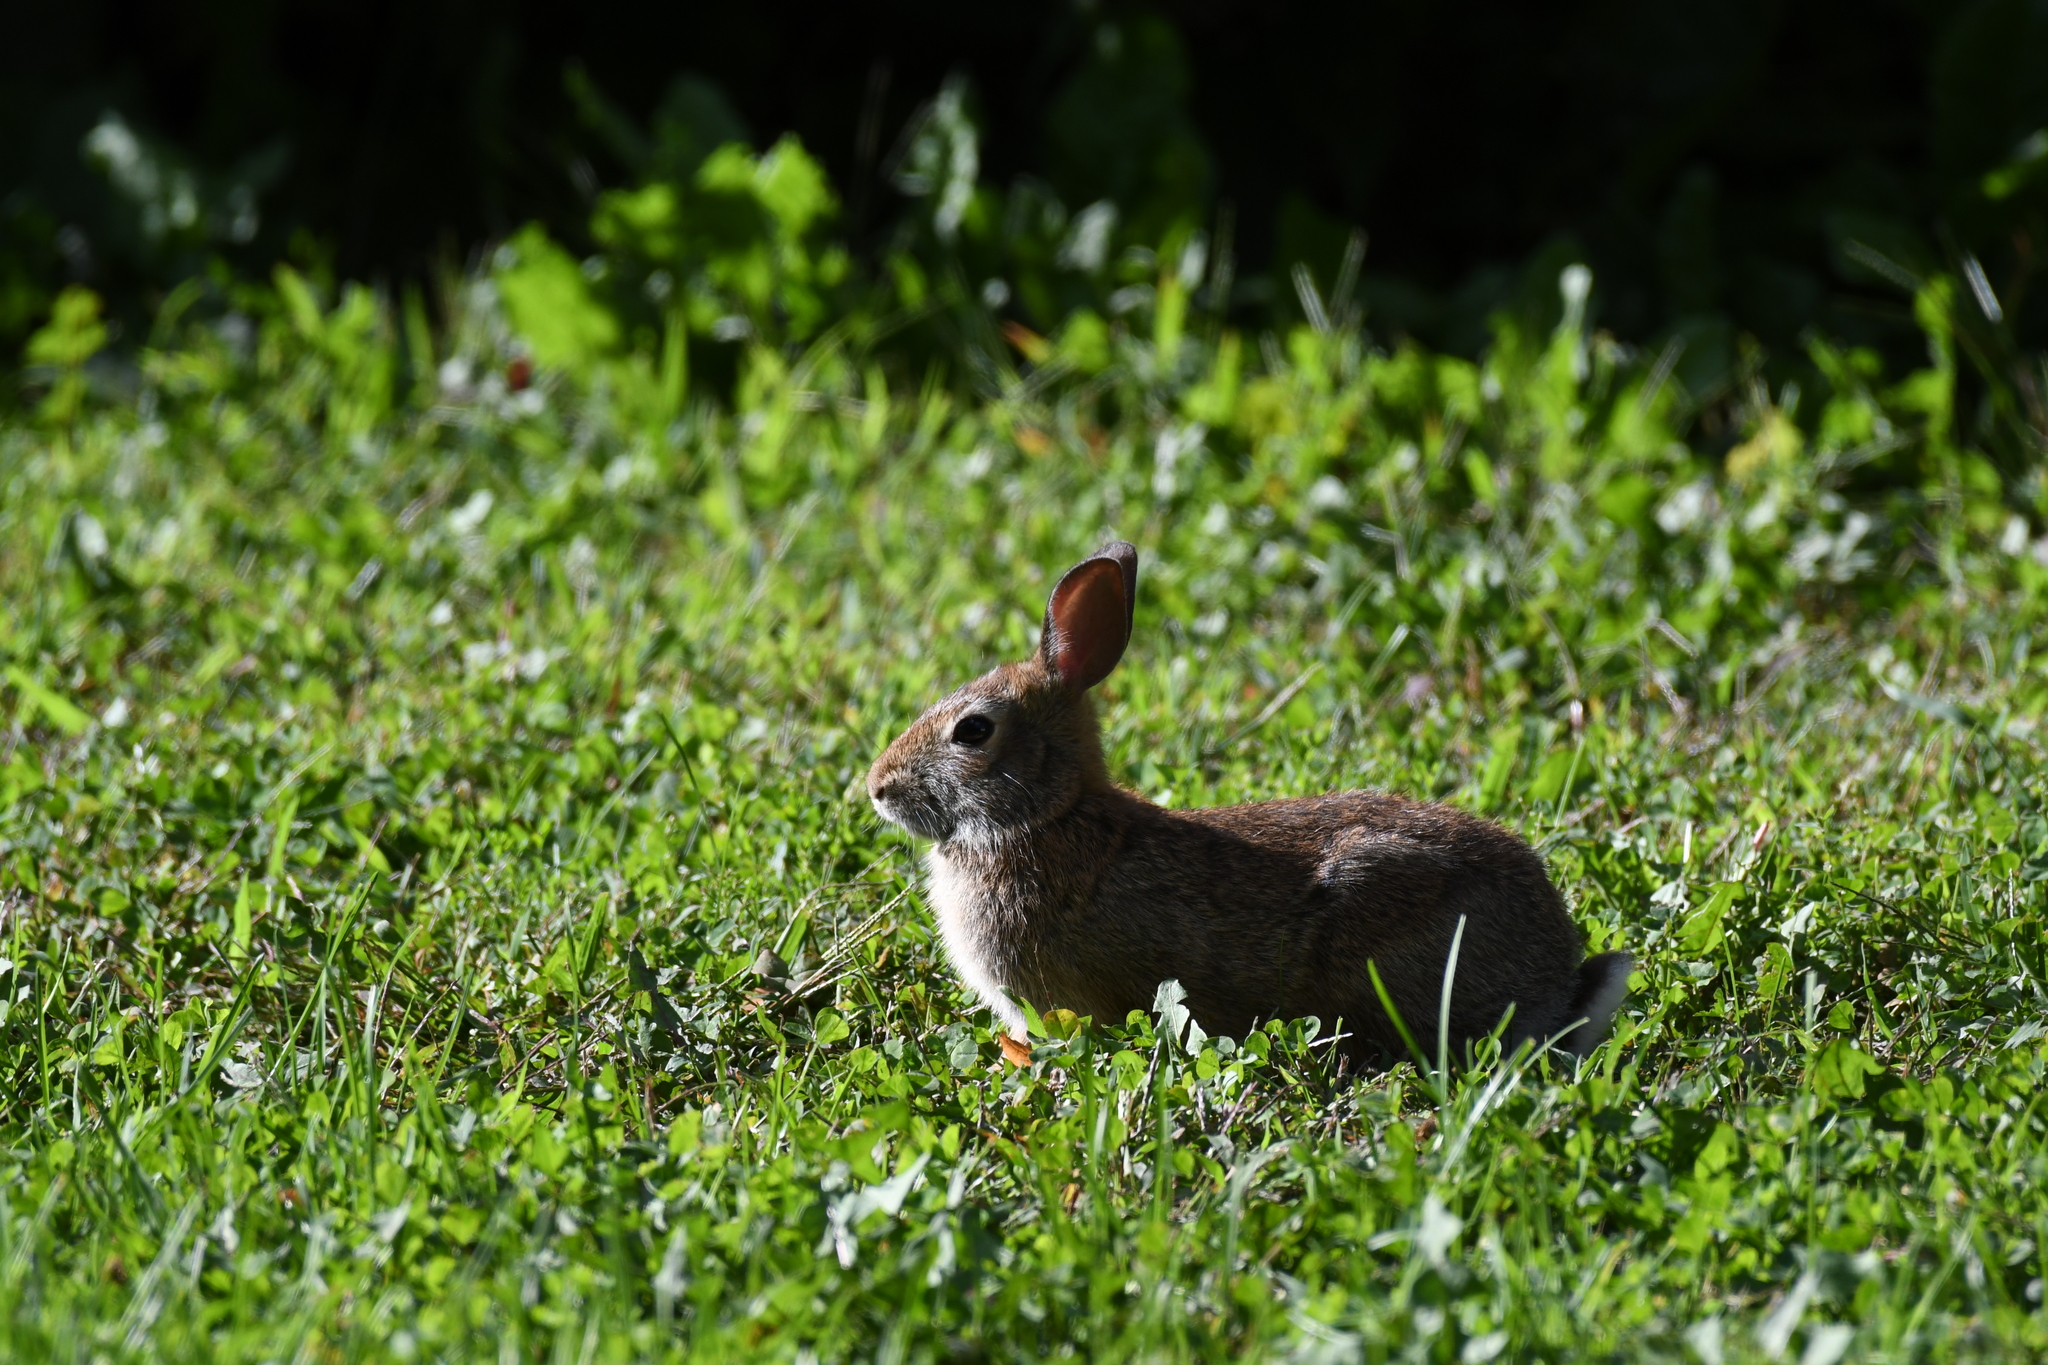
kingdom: Animalia
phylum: Chordata
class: Mammalia
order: Lagomorpha
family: Leporidae
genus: Sylvilagus
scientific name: Sylvilagus floridanus
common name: Eastern cottontail
